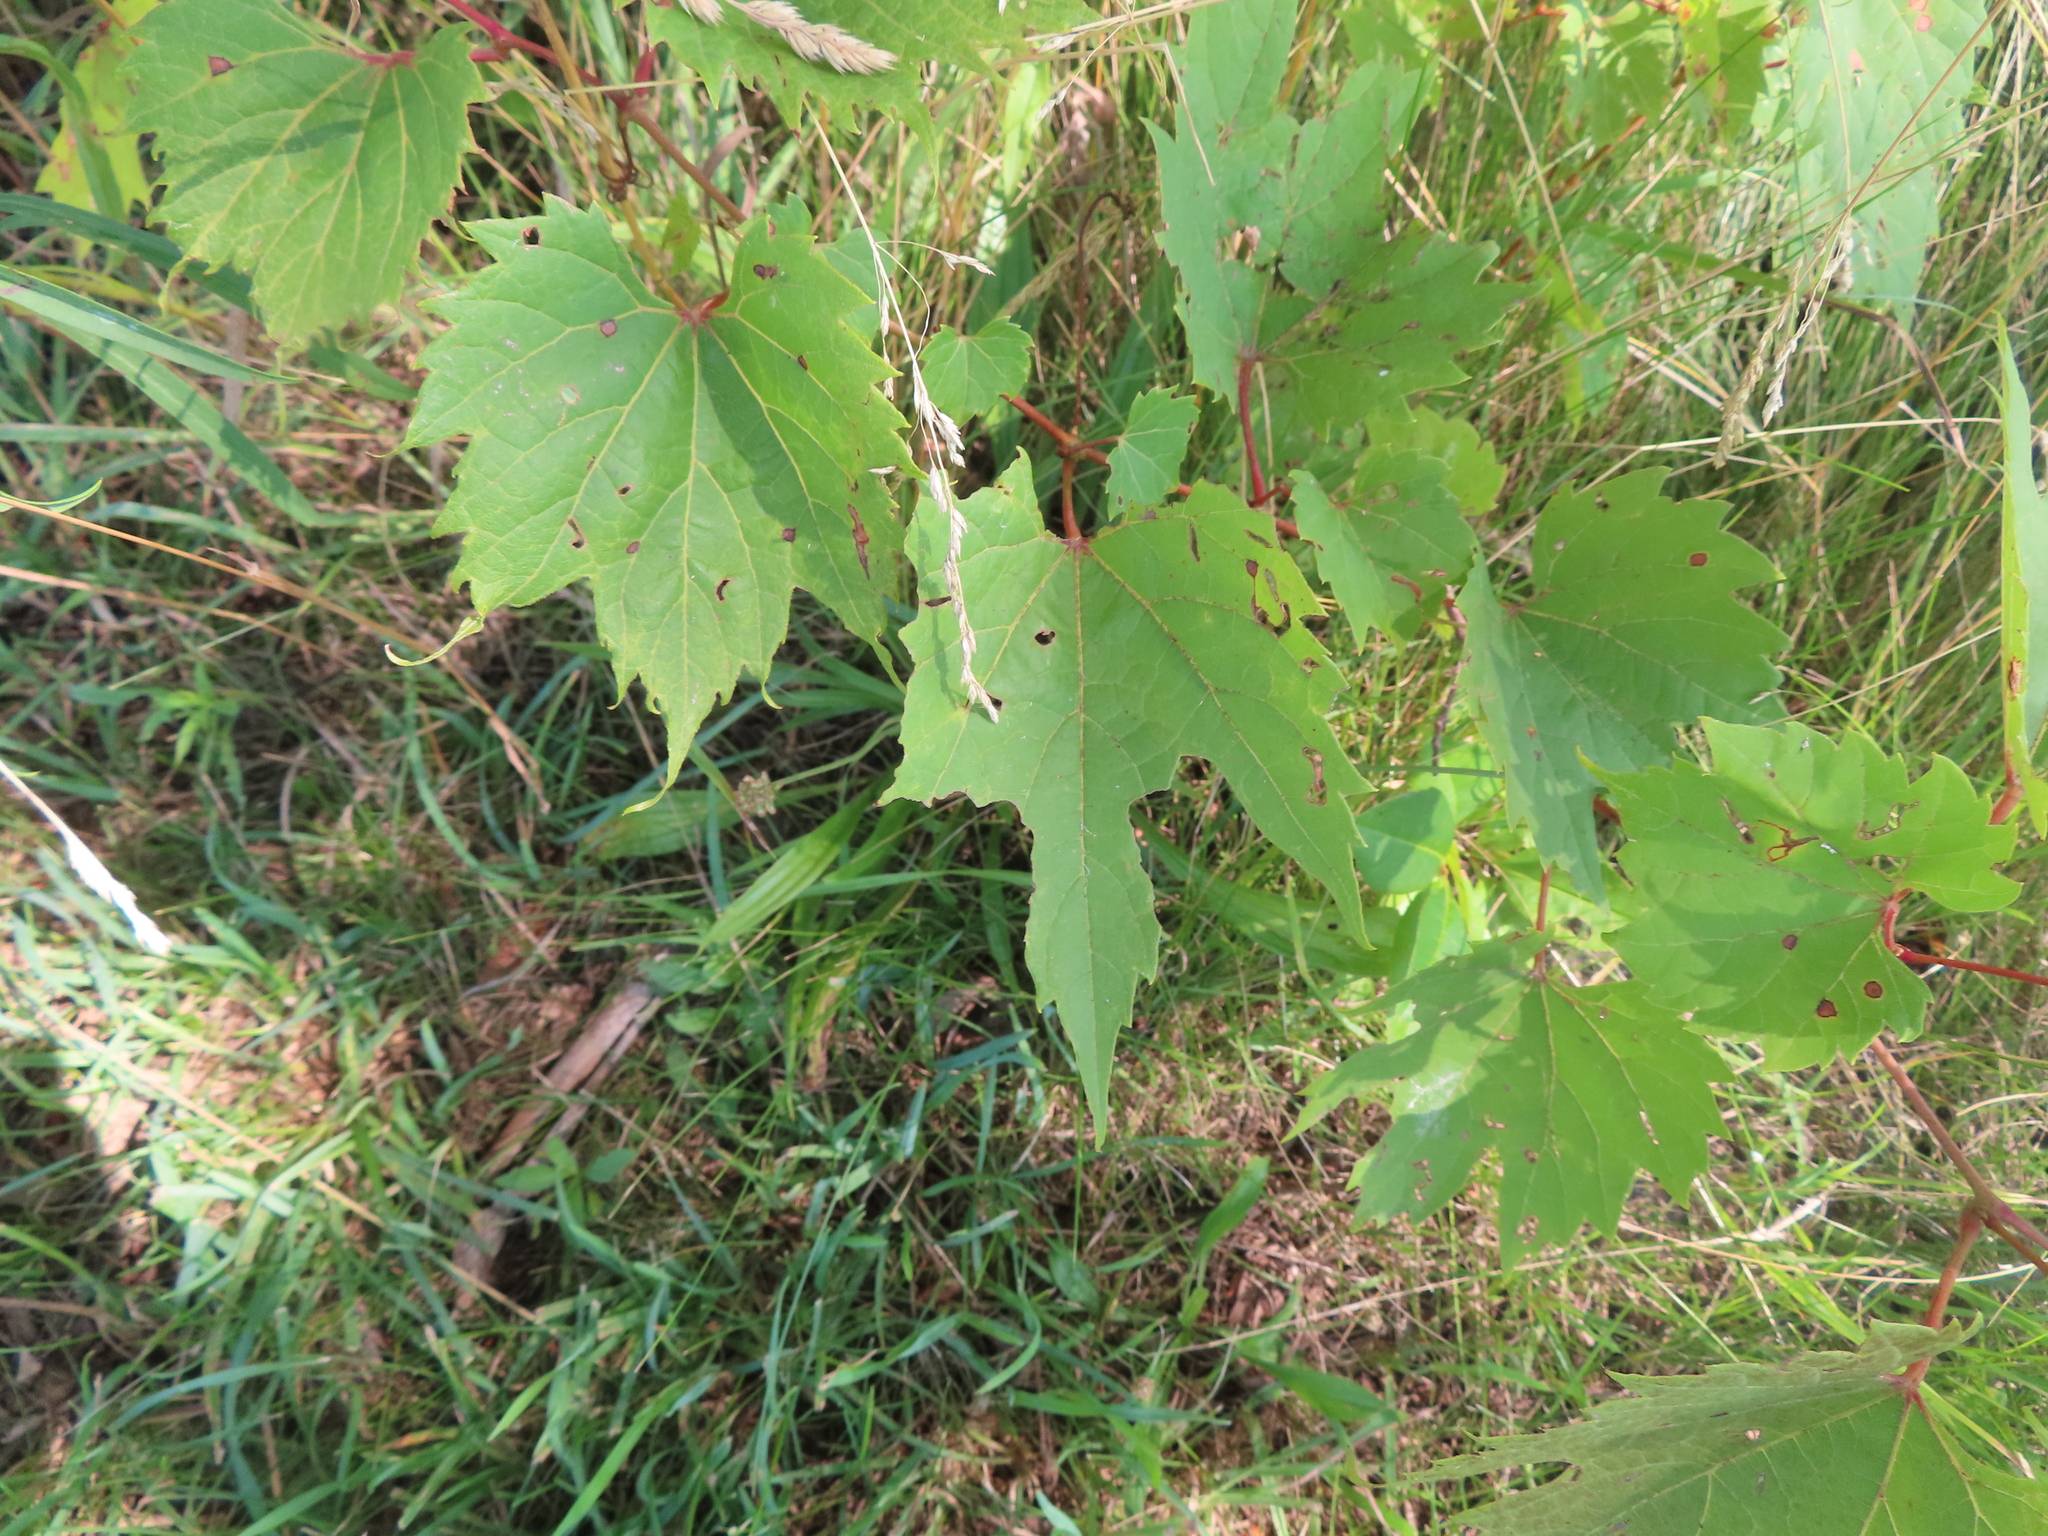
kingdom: Plantae
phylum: Tracheophyta
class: Magnoliopsida
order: Vitales
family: Vitaceae
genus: Vitis
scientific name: Vitis riparia
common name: Frost grape
